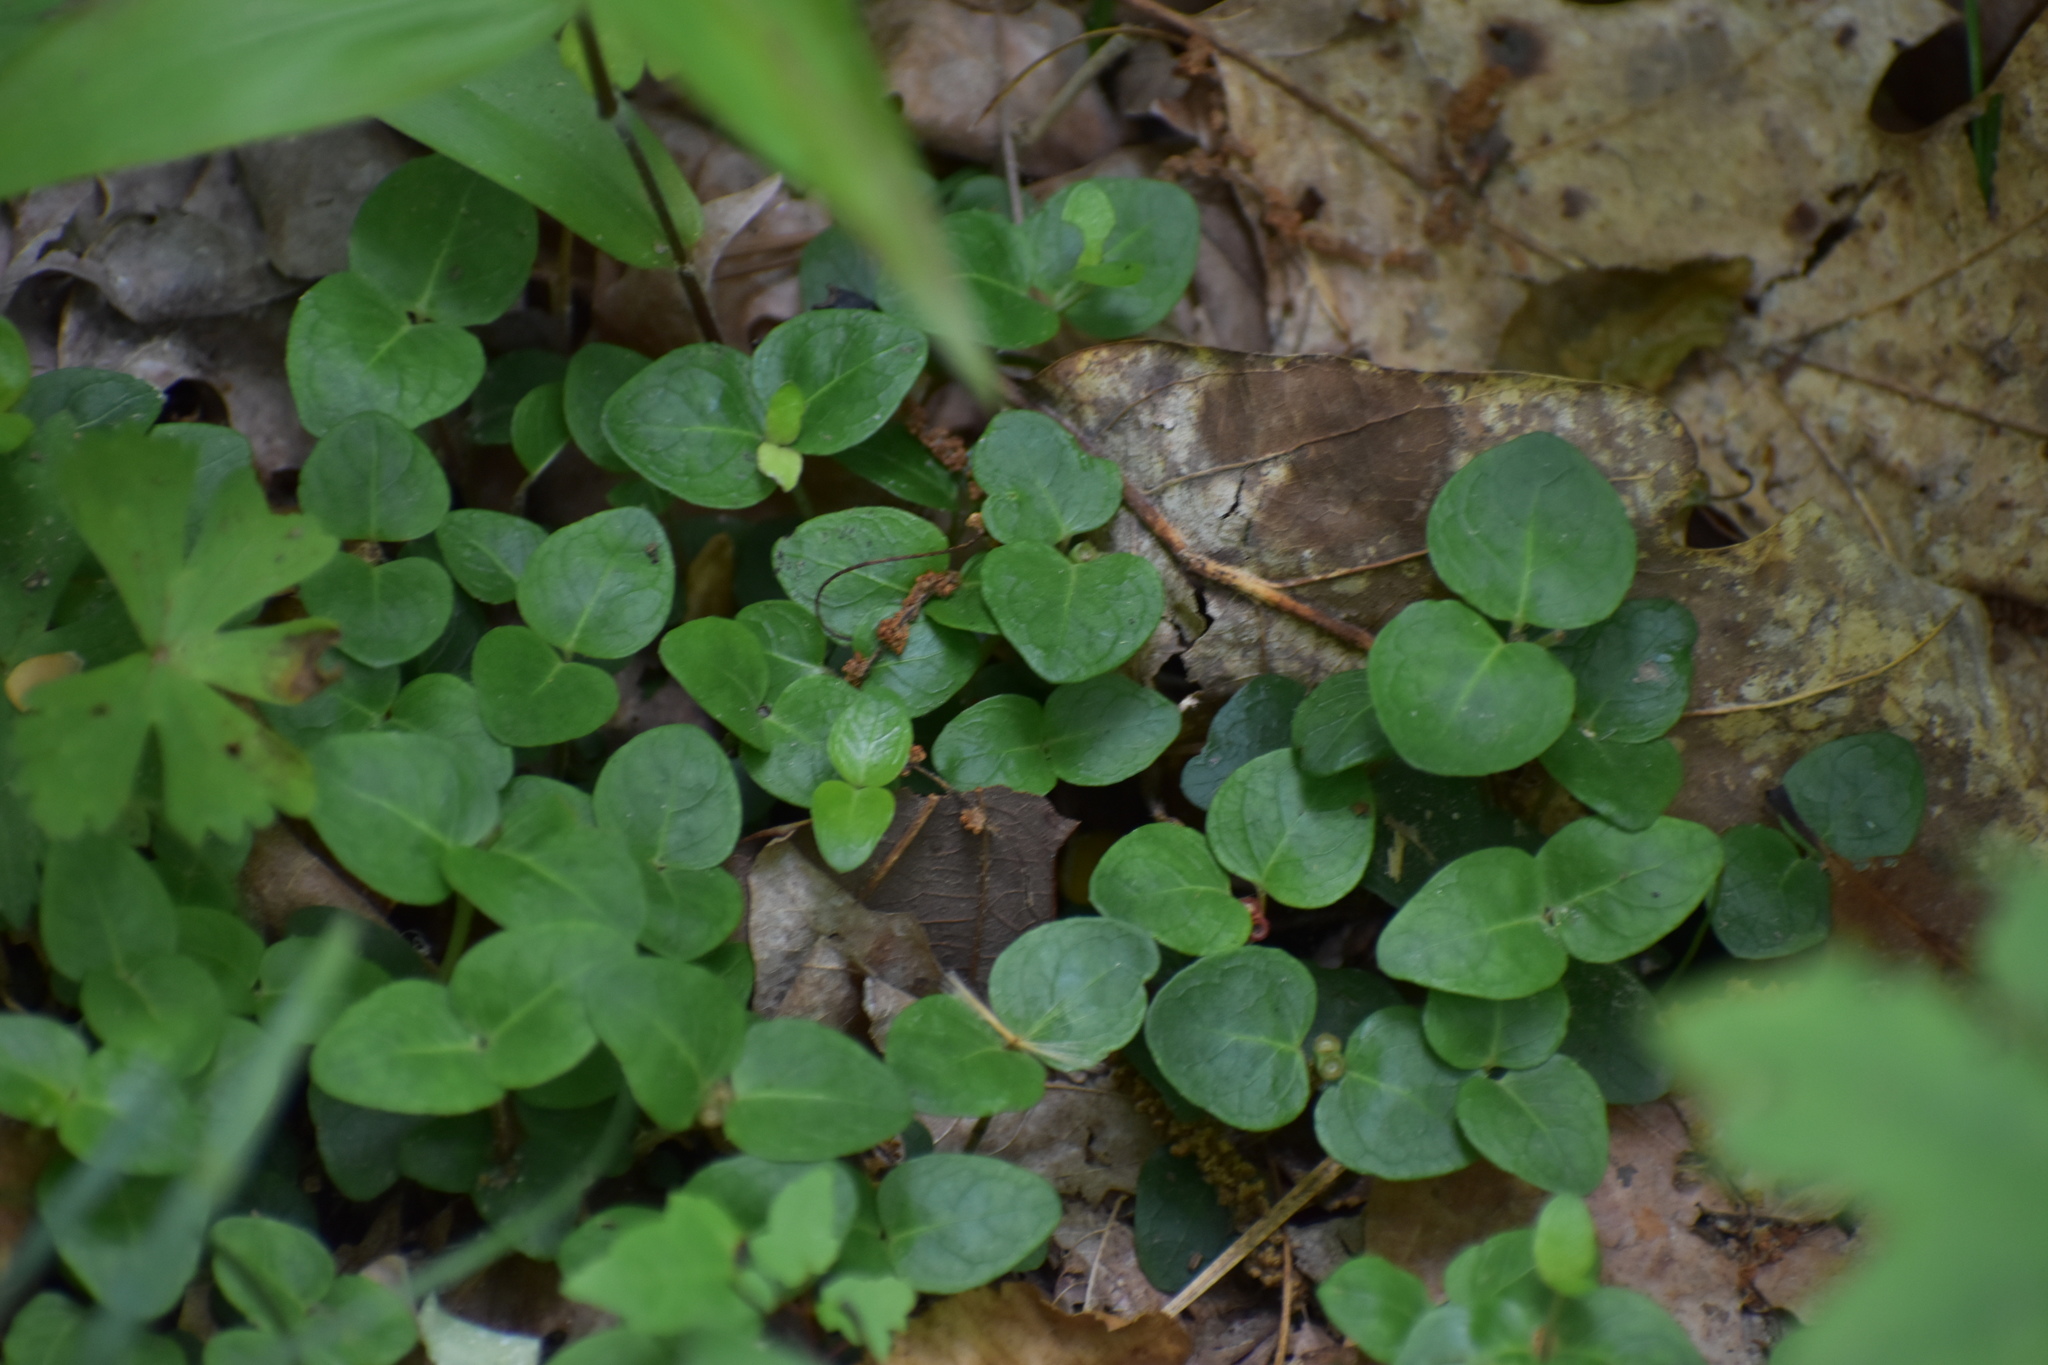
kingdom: Plantae
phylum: Tracheophyta
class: Magnoliopsida
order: Gentianales
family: Rubiaceae
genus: Mitchella
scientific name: Mitchella repens
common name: Partridge-berry
